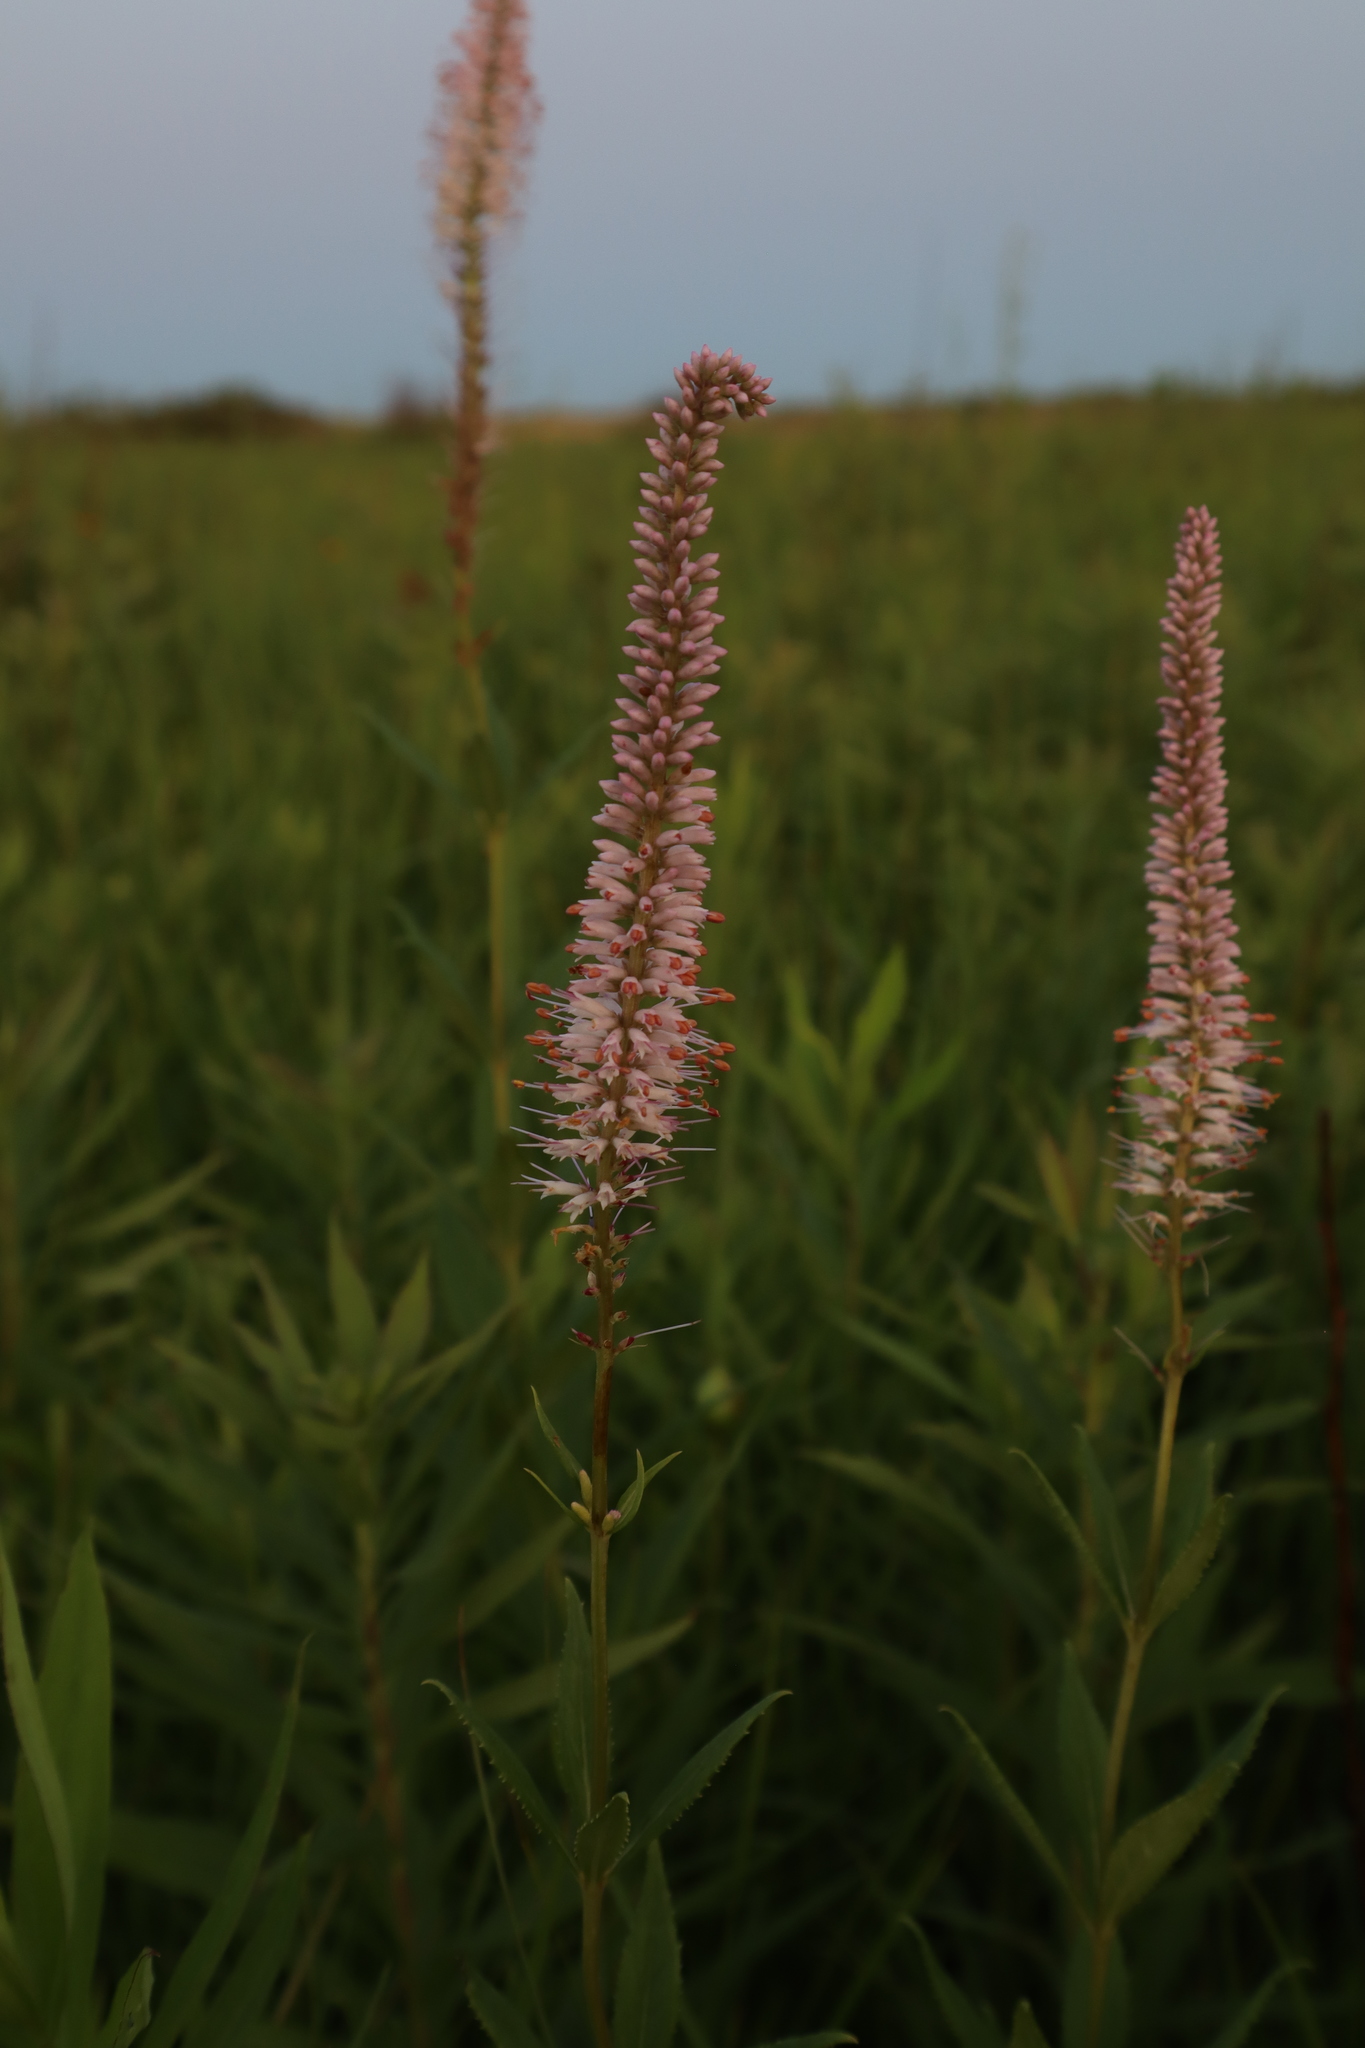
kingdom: Plantae
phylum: Tracheophyta
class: Magnoliopsida
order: Lamiales
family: Plantaginaceae
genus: Veronicastrum
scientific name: Veronicastrum virginicum
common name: Blackroot
